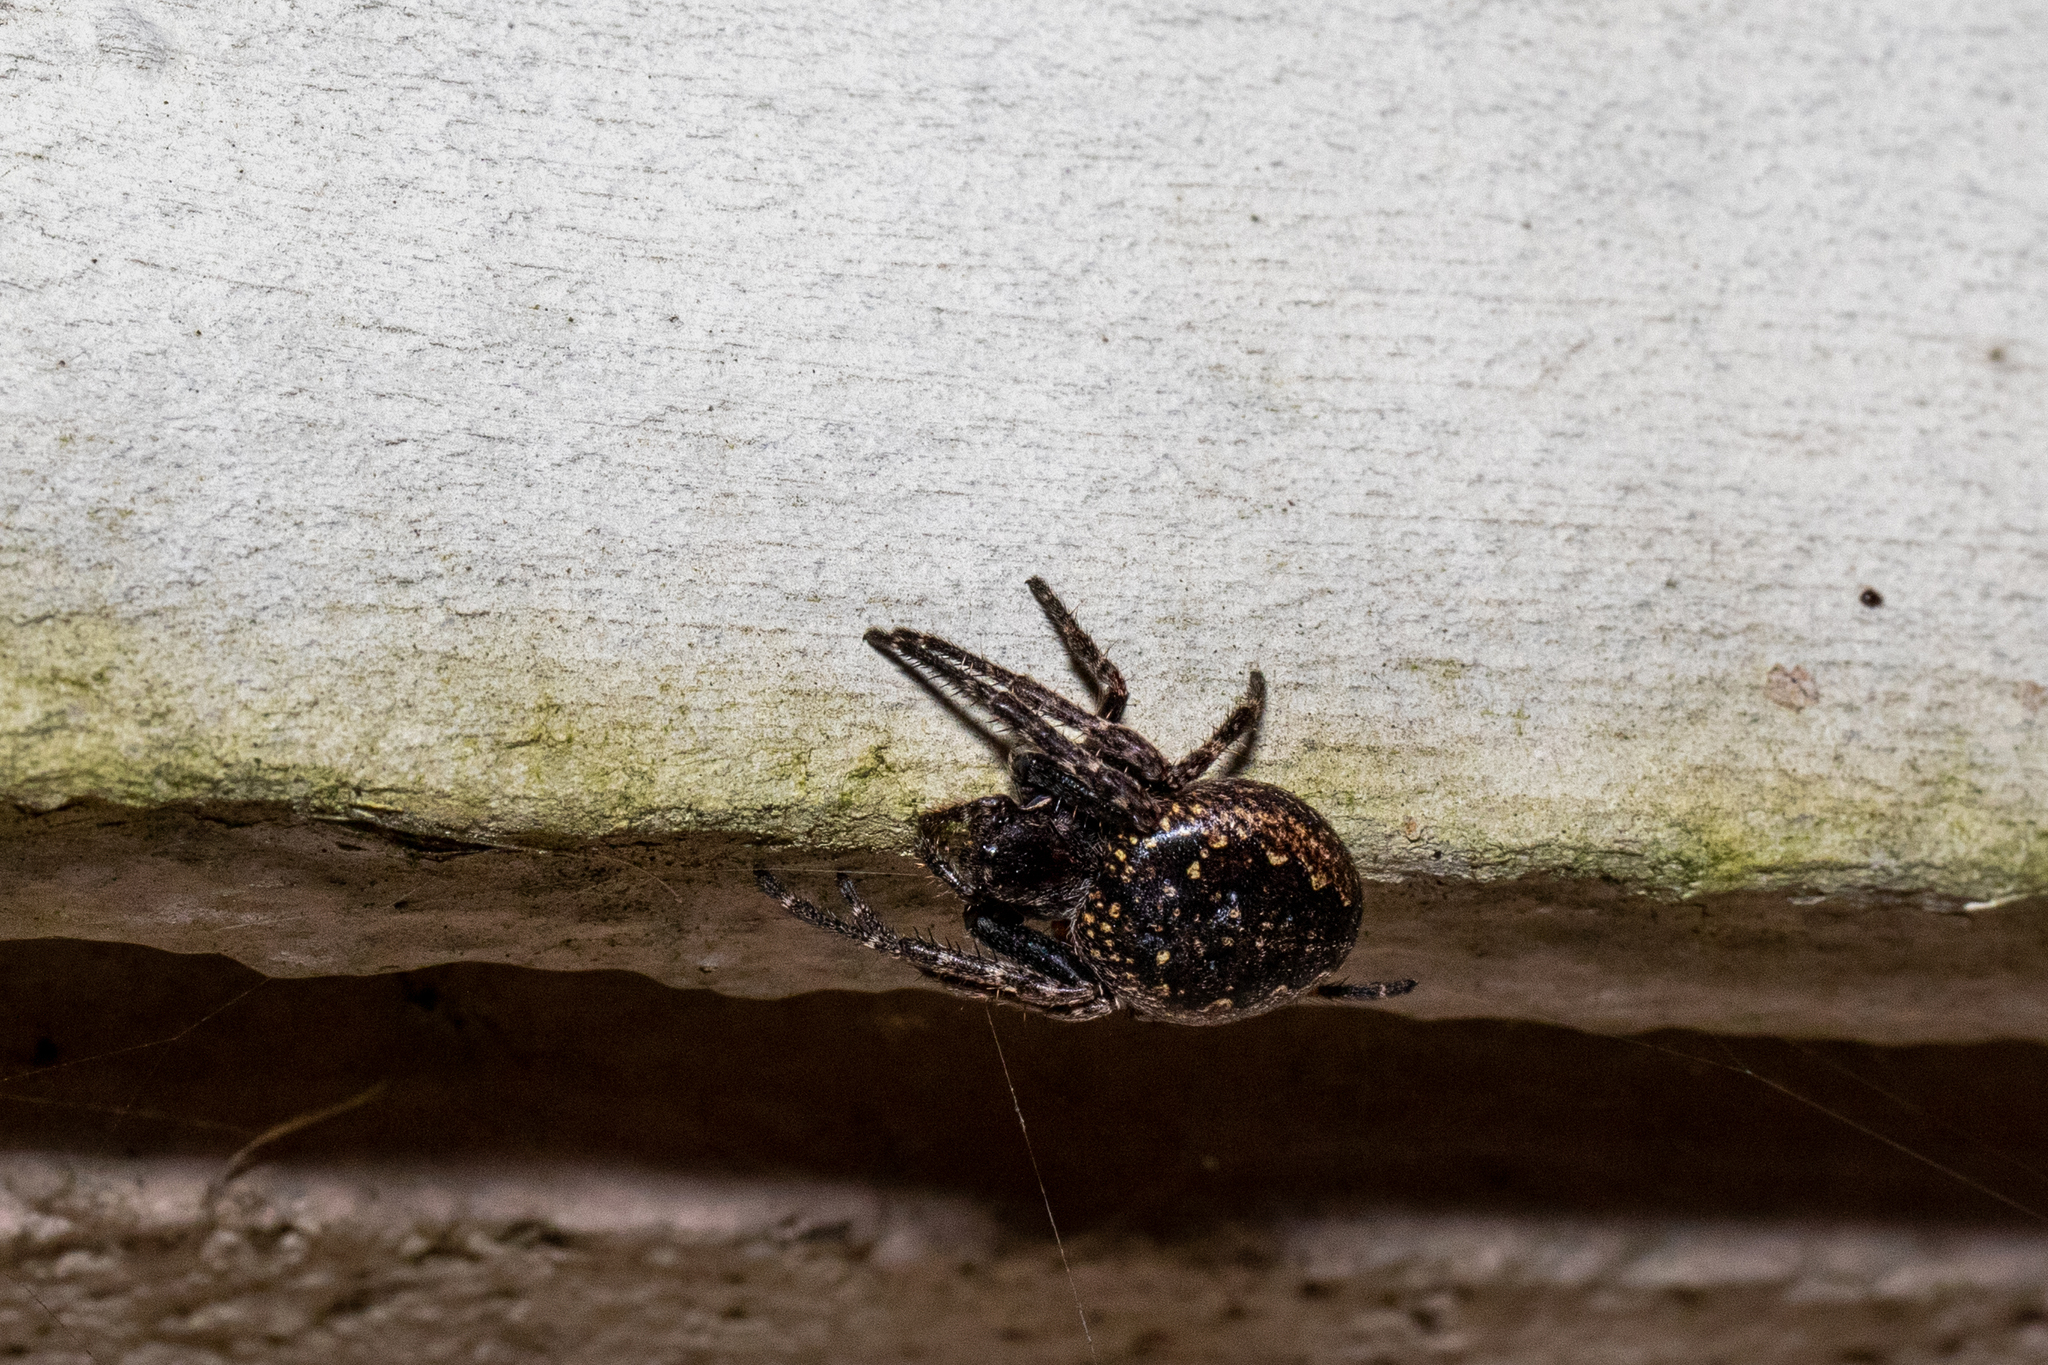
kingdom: Animalia
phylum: Arthropoda
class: Arachnida
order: Araneae
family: Araneidae
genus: Nuctenea
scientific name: Nuctenea umbratica
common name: Toad spider
